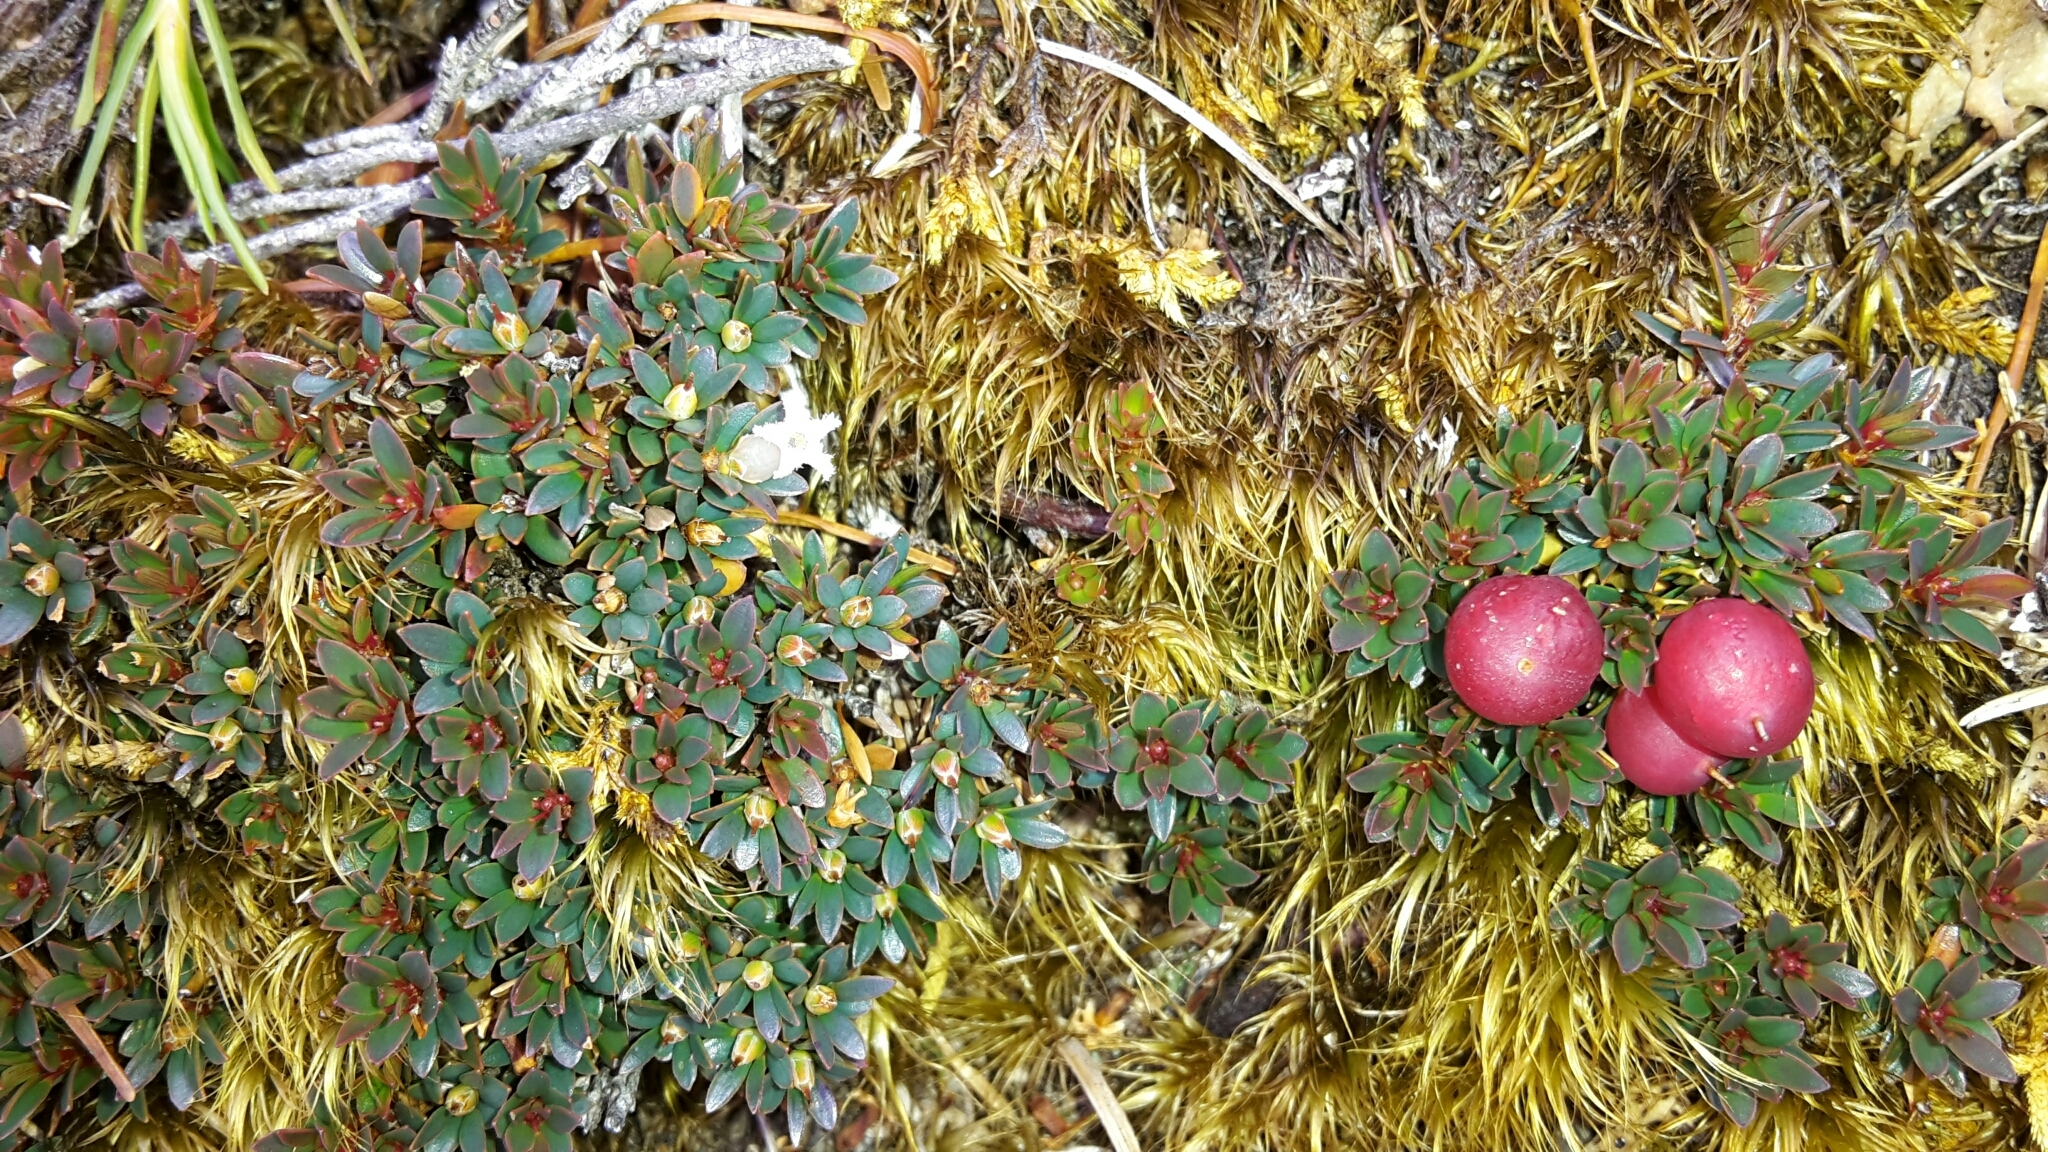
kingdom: Plantae
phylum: Tracheophyta
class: Magnoliopsida
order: Ericales
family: Ericaceae
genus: Pentachondra
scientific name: Pentachondra pumila
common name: Carpet-heath
